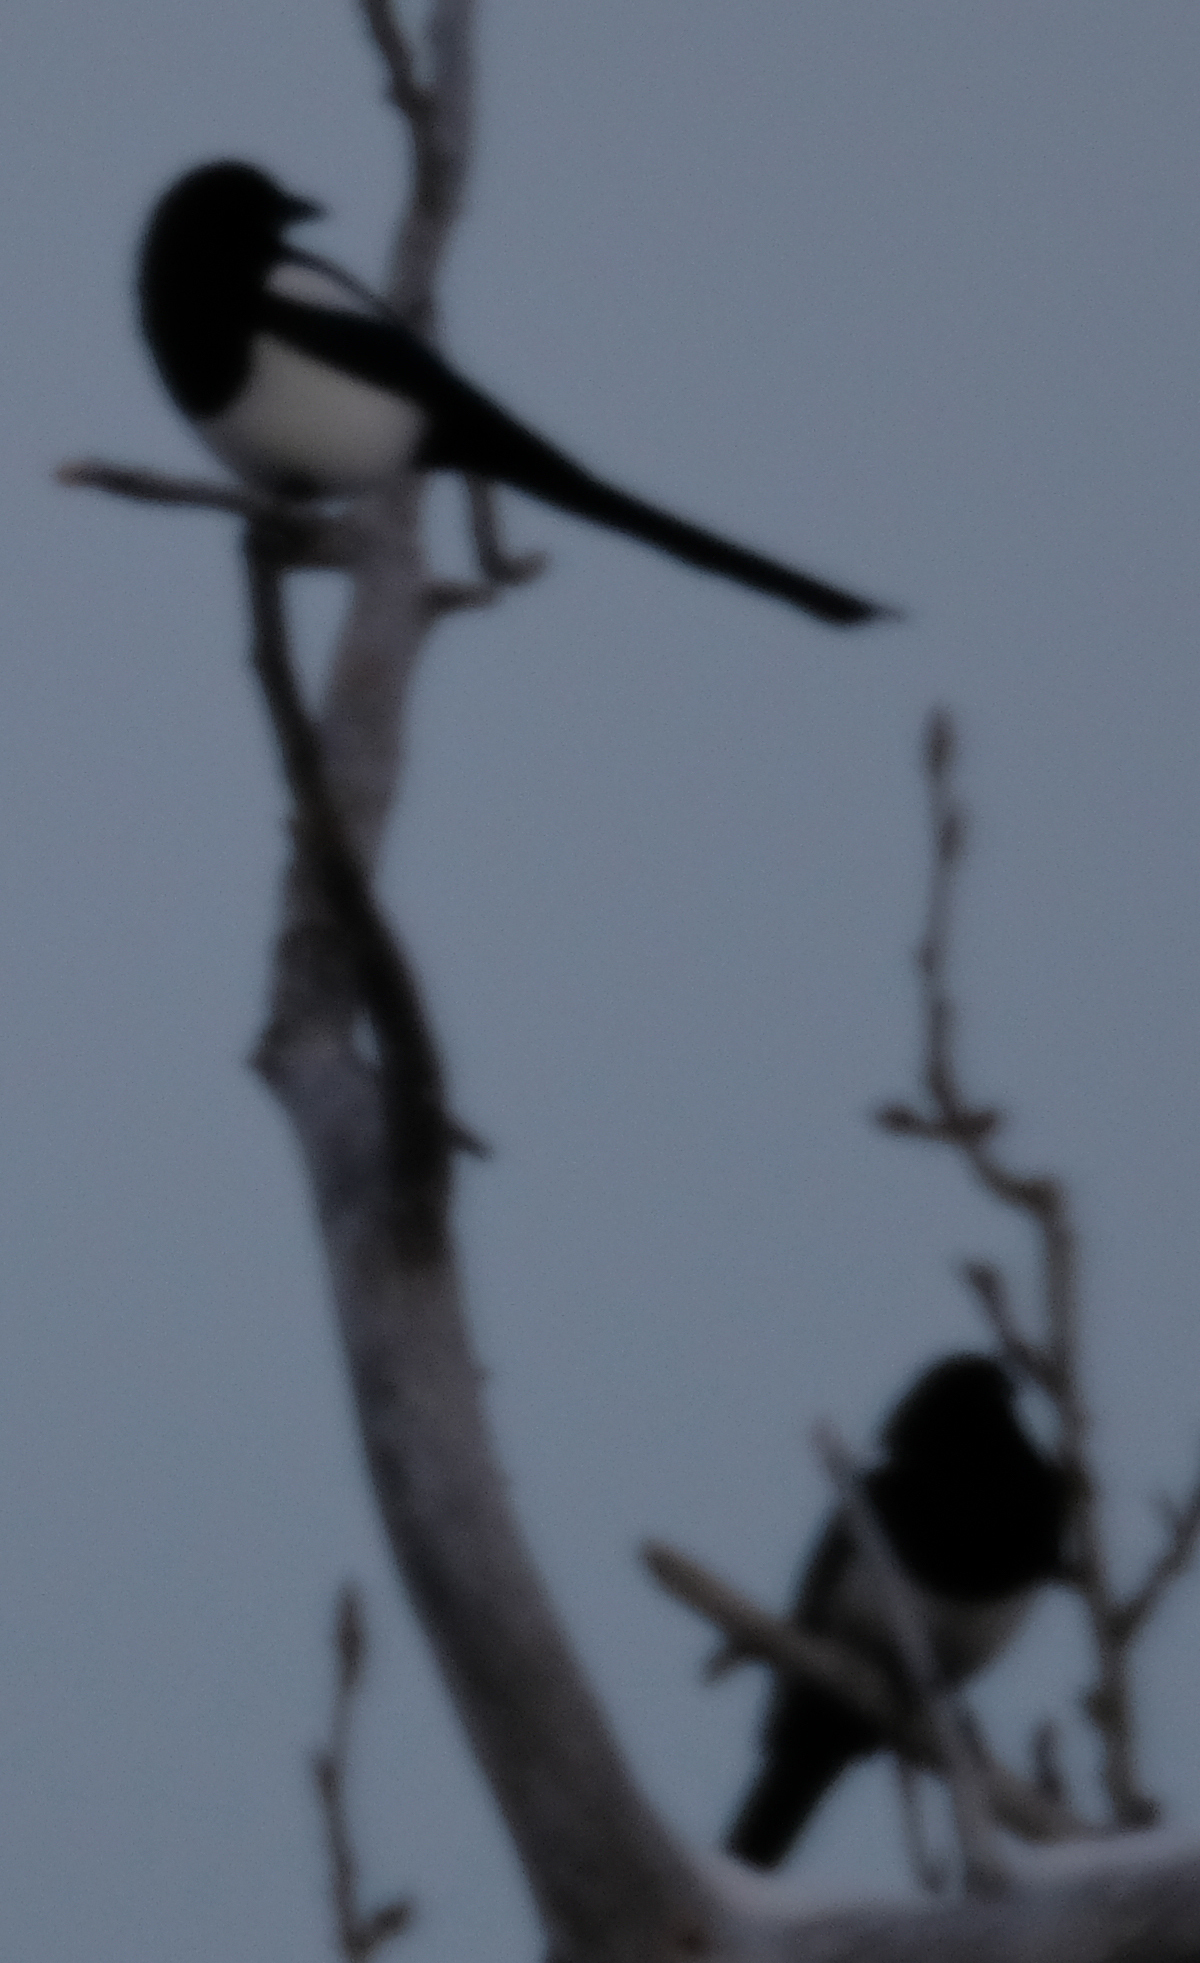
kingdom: Animalia
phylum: Chordata
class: Aves
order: Passeriformes
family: Corvidae
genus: Pica
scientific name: Pica hudsonia
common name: Black-billed magpie
